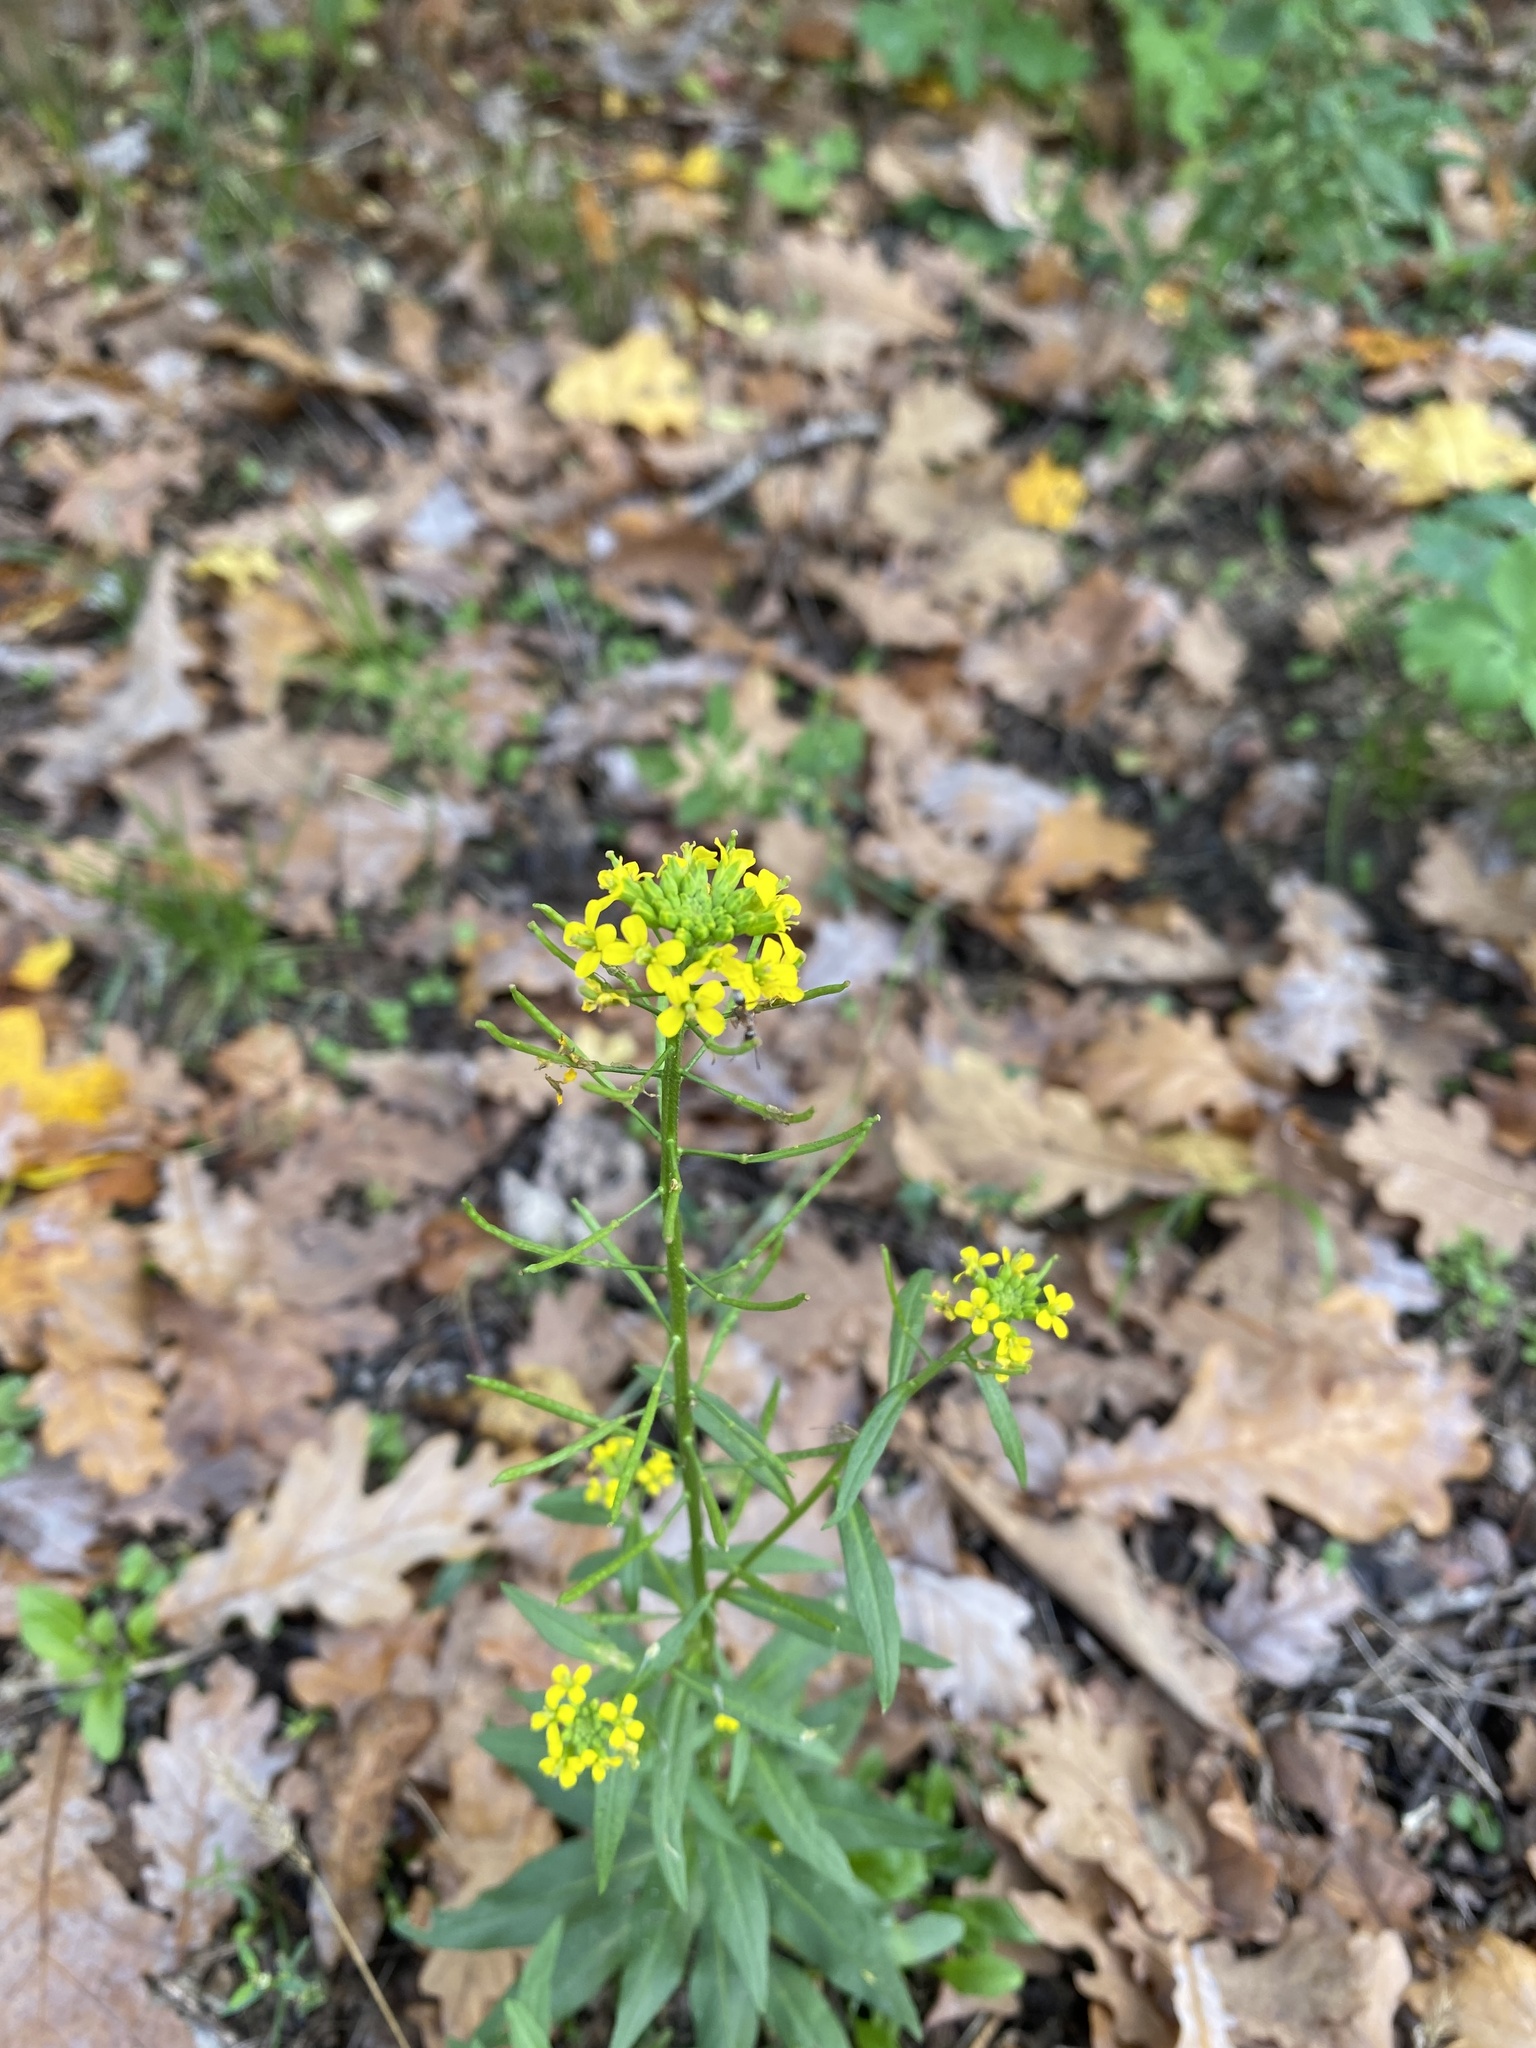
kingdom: Plantae
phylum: Tracheophyta
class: Magnoliopsida
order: Brassicales
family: Brassicaceae
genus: Erysimum
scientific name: Erysimum cheiranthoides
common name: Treacle mustard
